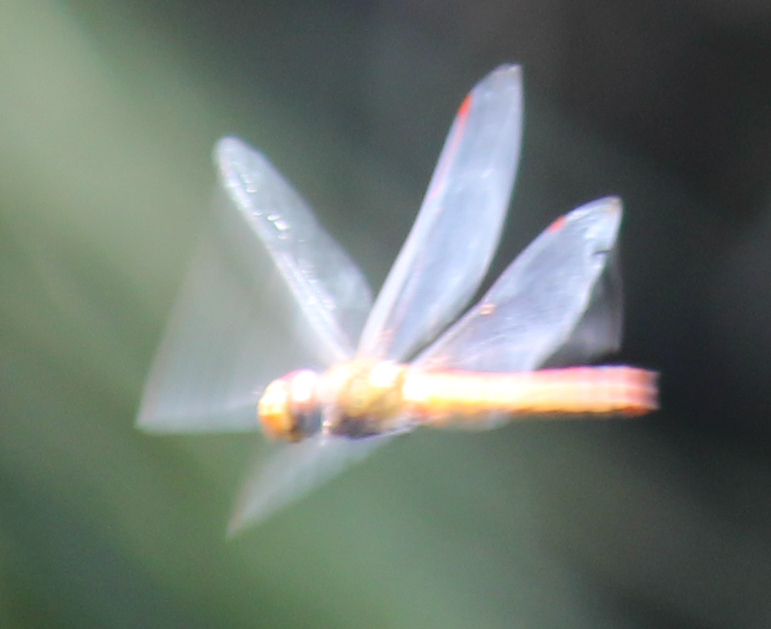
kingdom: Animalia
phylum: Arthropoda
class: Insecta
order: Odonata
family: Libellulidae
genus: Pantala
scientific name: Pantala flavescens
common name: Wandering glider
